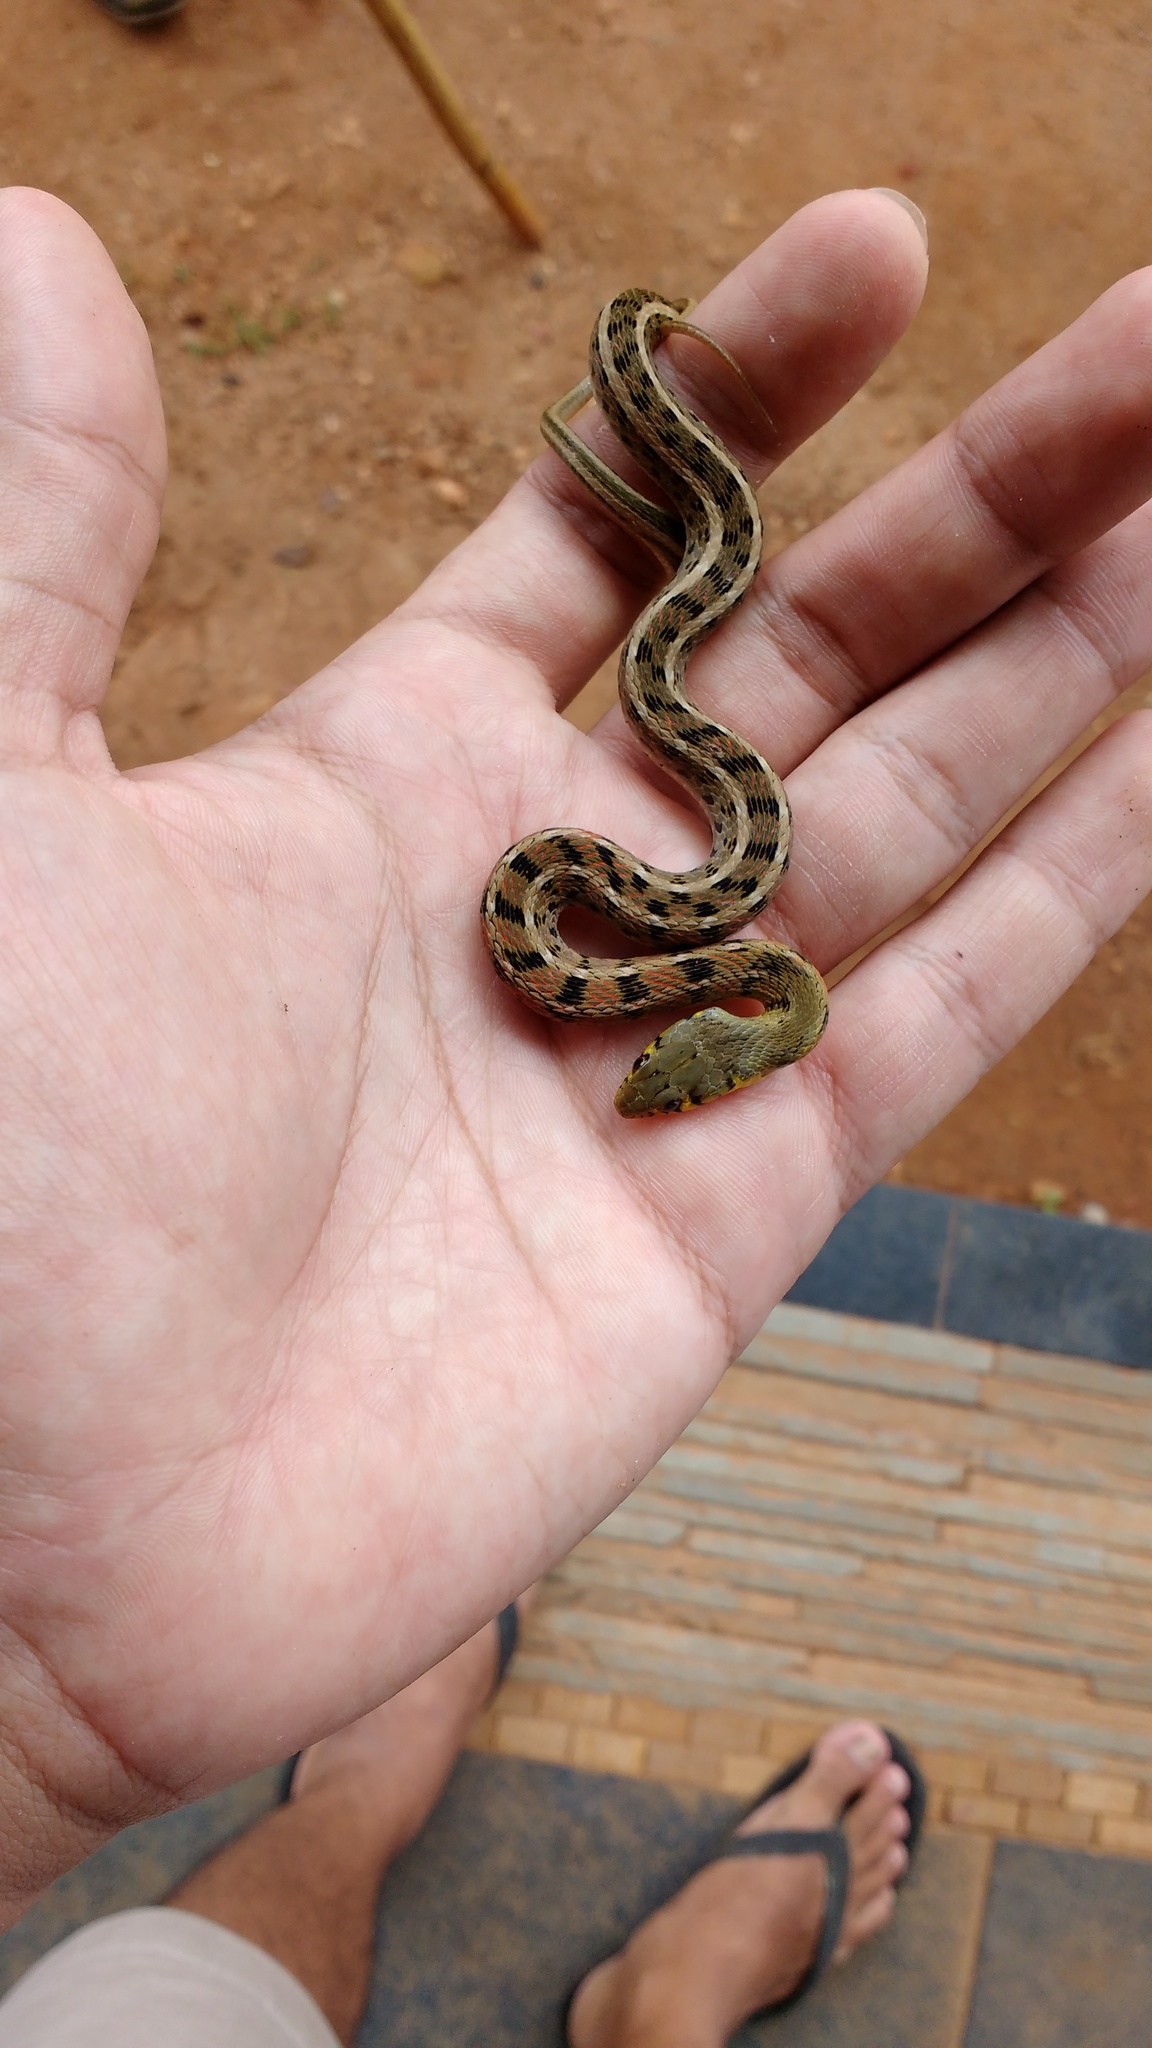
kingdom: Animalia
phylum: Chordata
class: Squamata
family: Colubridae
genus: Amphiesma
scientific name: Amphiesma stolatum
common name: Buff striped keelback
